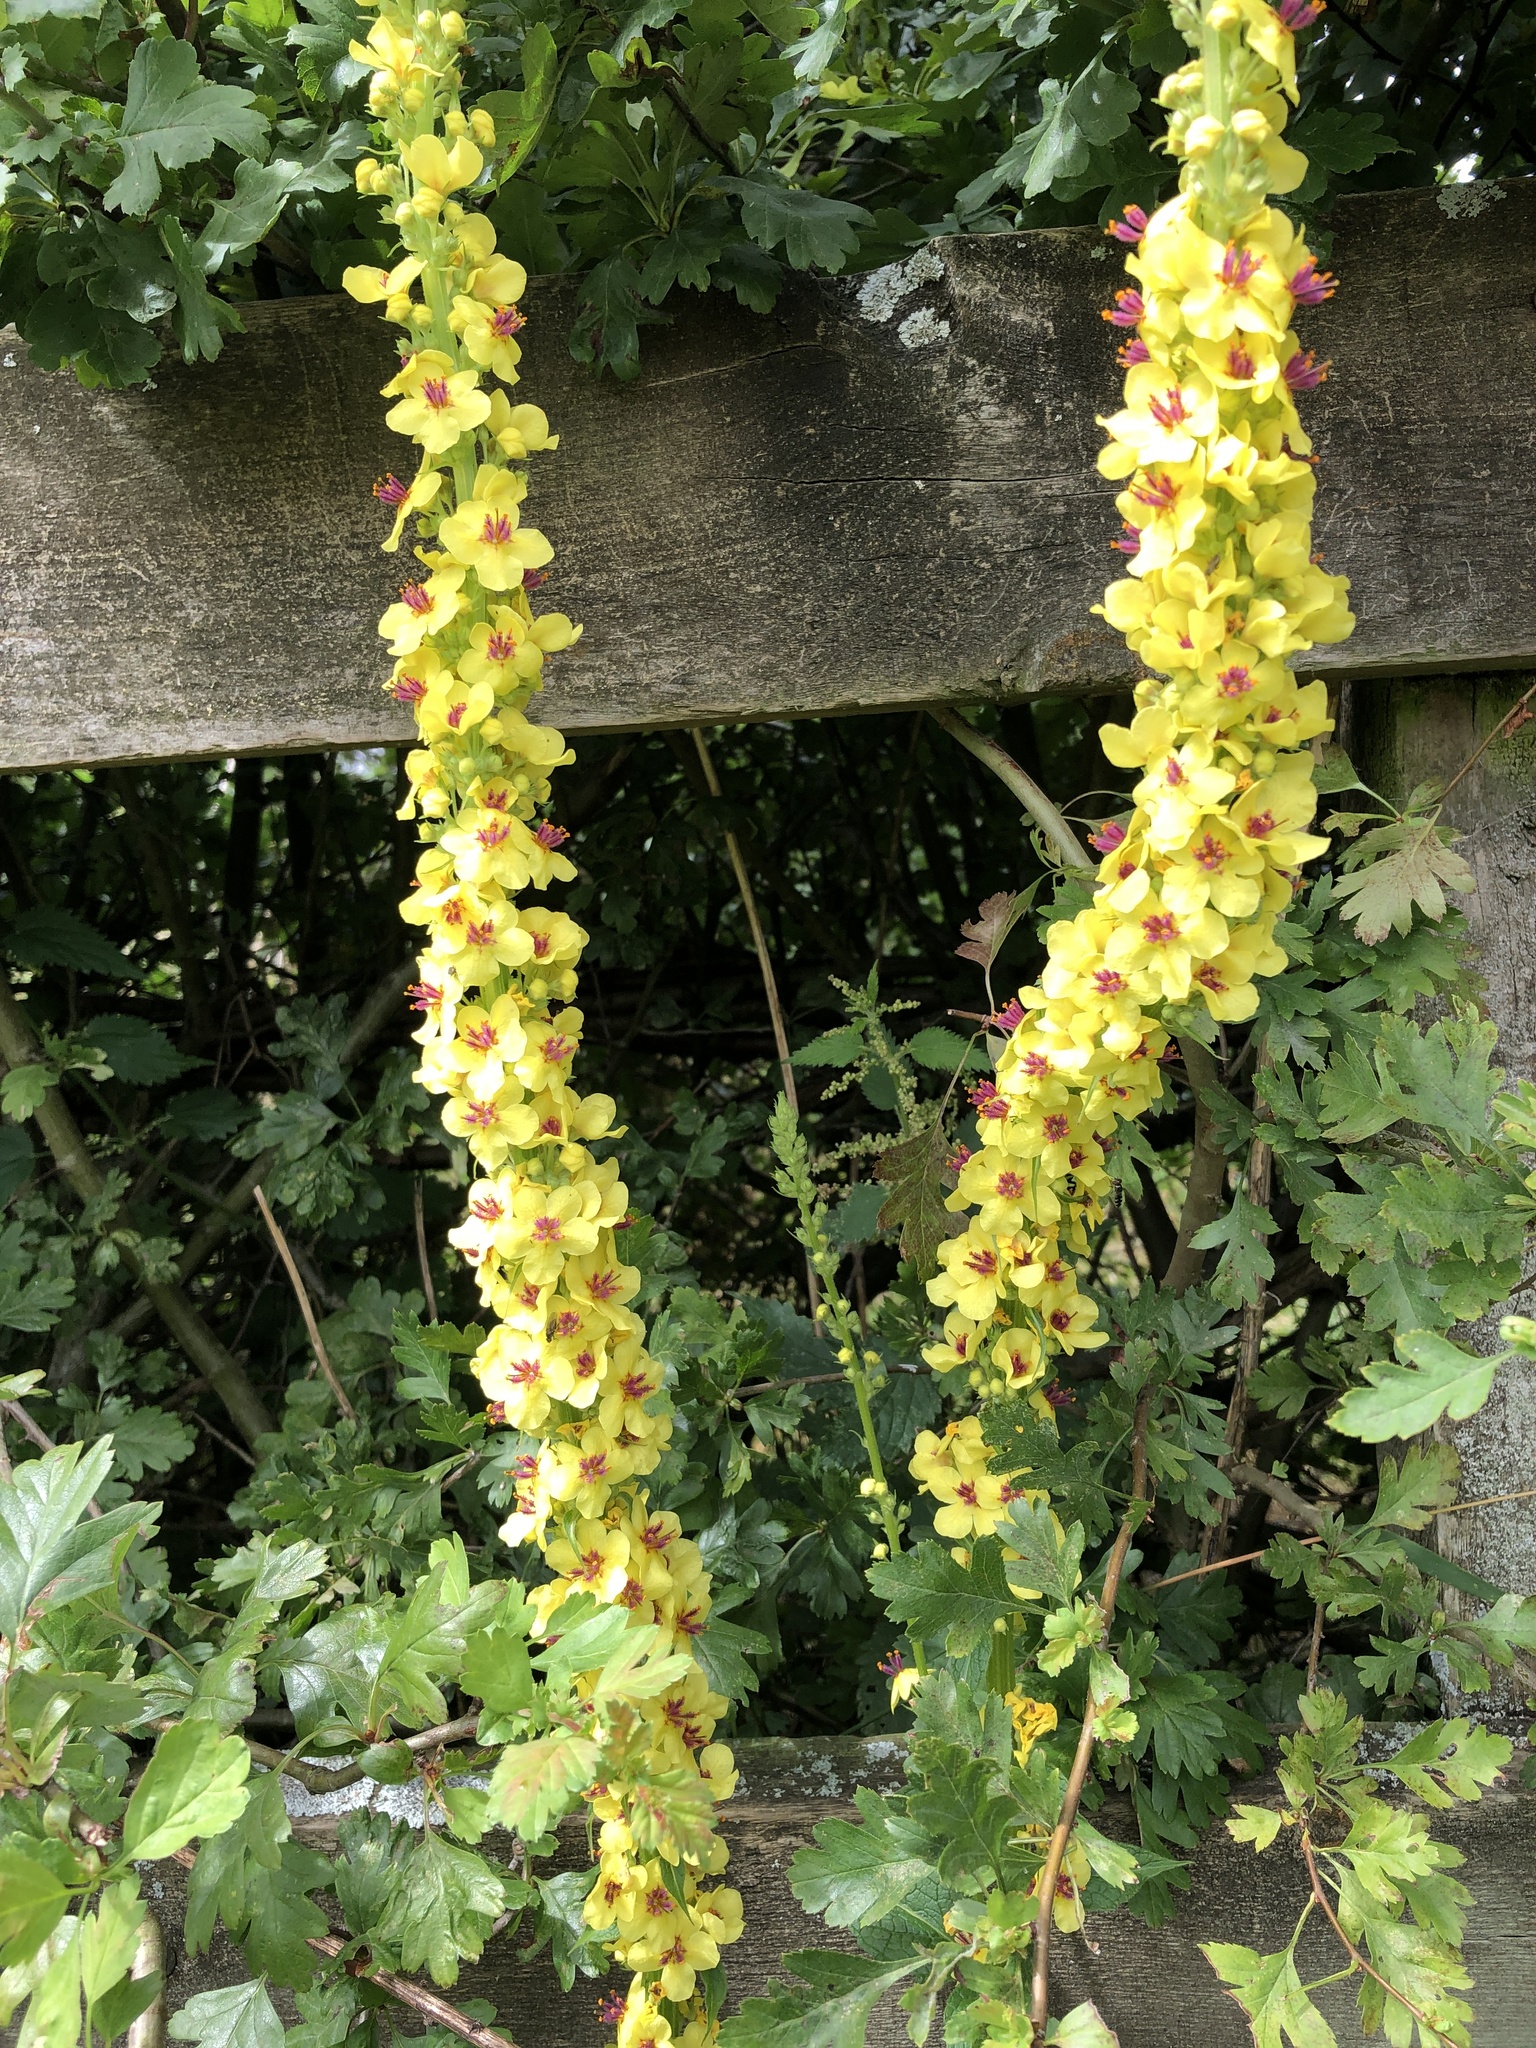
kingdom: Plantae
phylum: Tracheophyta
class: Magnoliopsida
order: Lamiales
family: Scrophulariaceae
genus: Verbascum
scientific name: Verbascum nigrum
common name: Dark mullein
